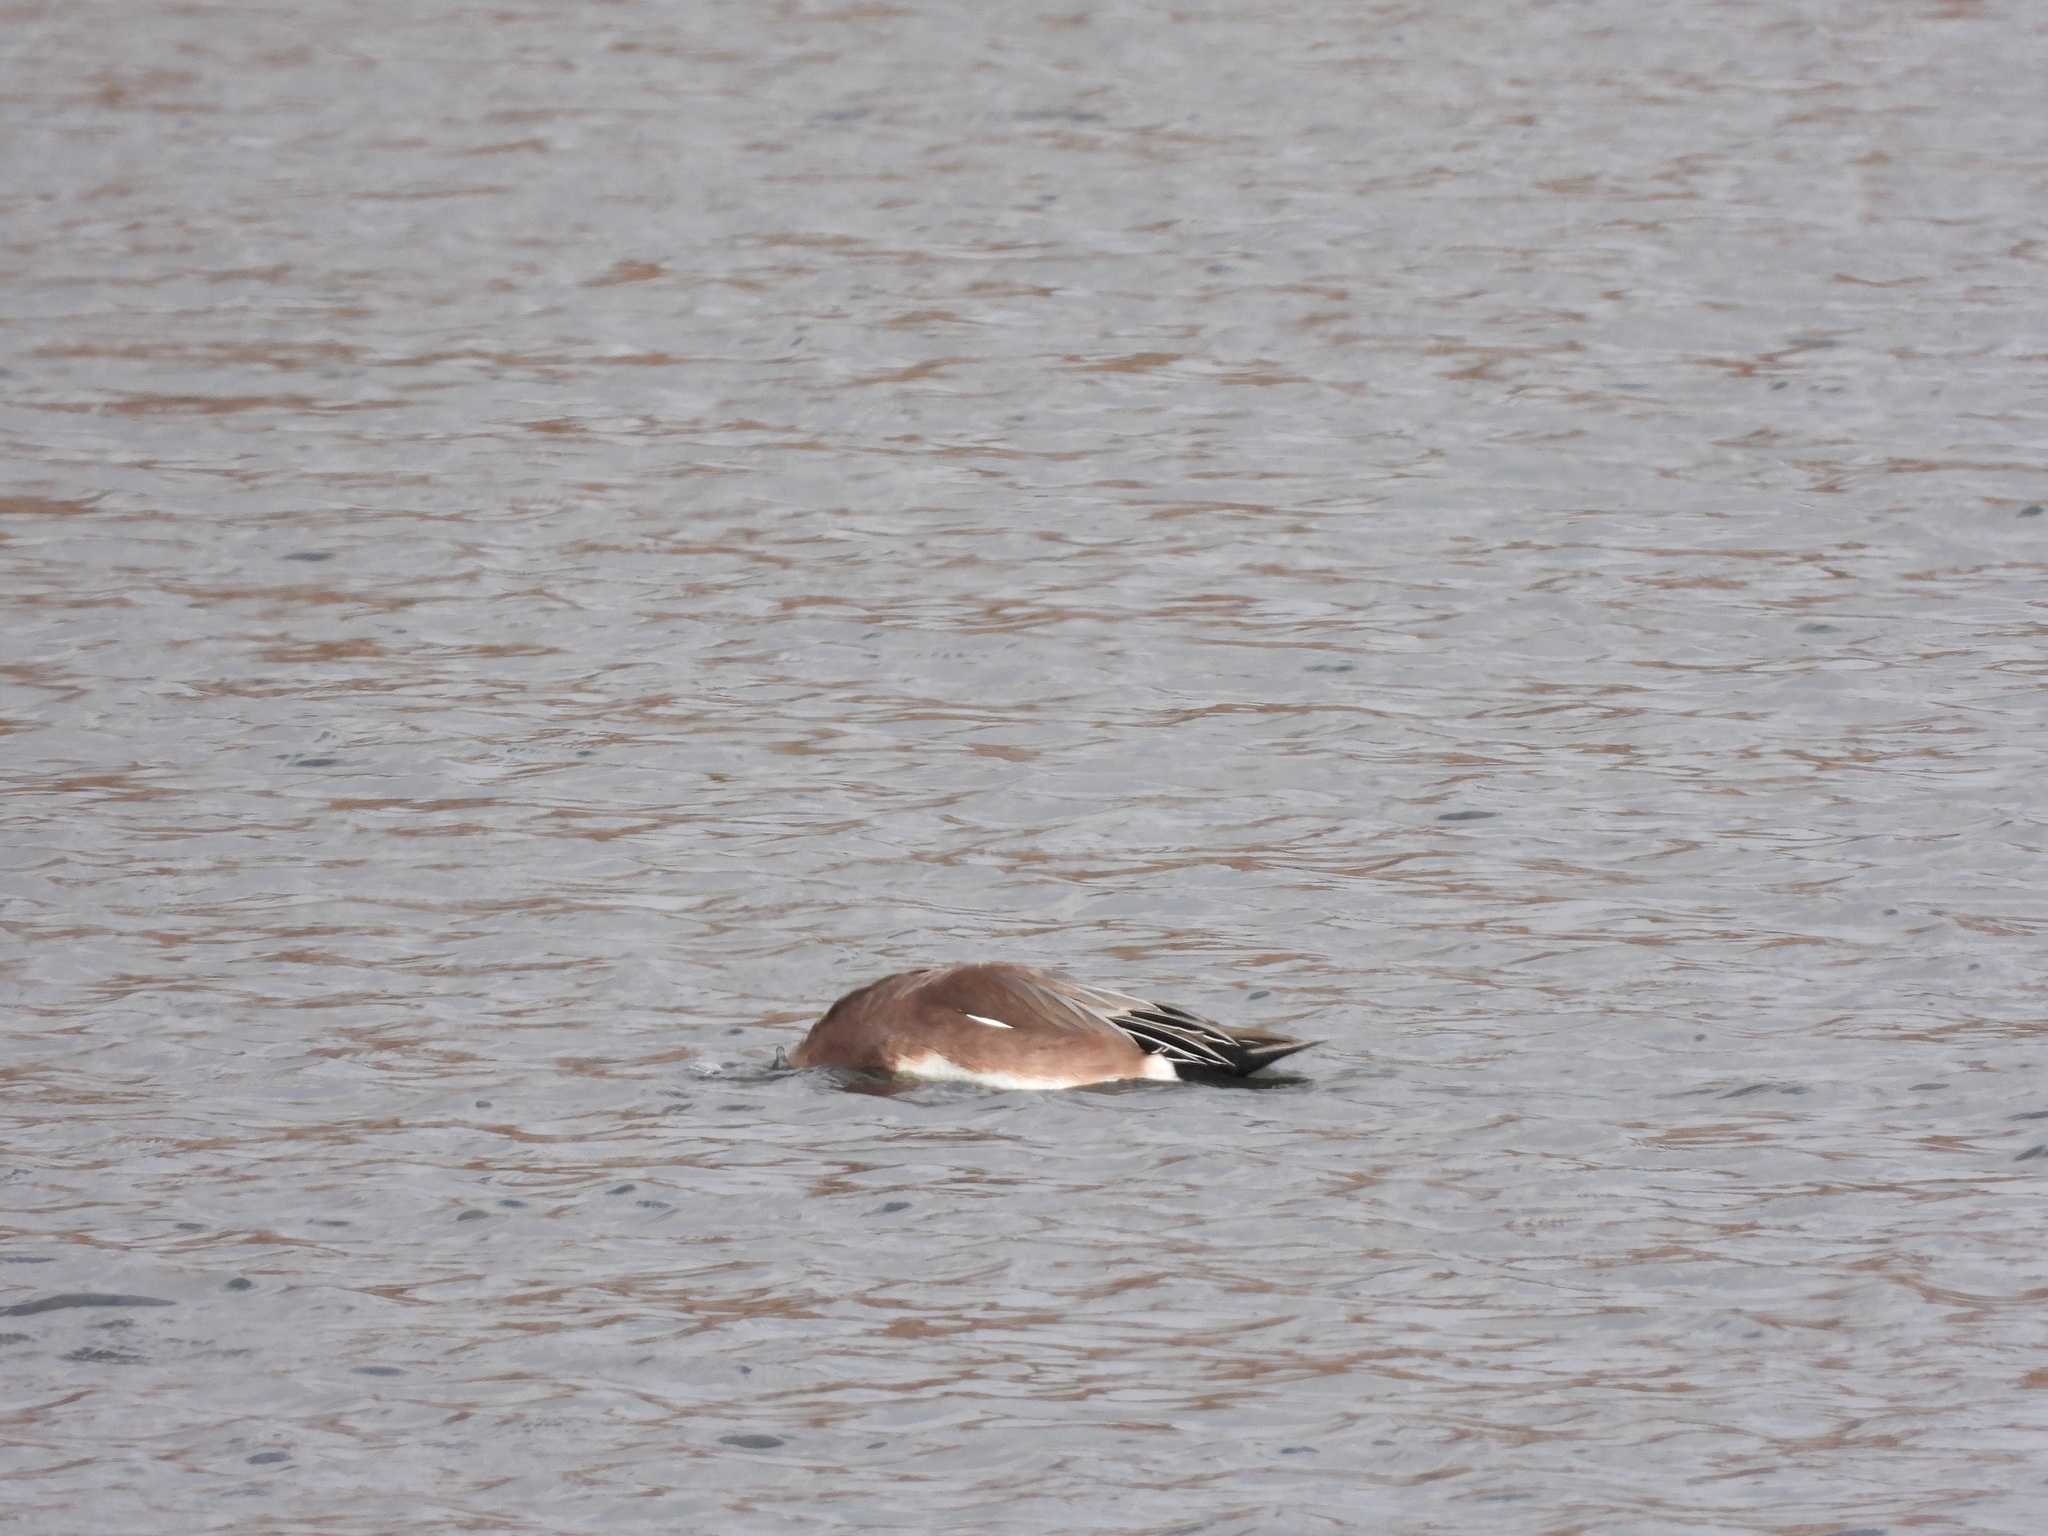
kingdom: Animalia
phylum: Chordata
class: Aves
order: Anseriformes
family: Anatidae
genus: Mareca
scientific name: Mareca americana
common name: American wigeon
